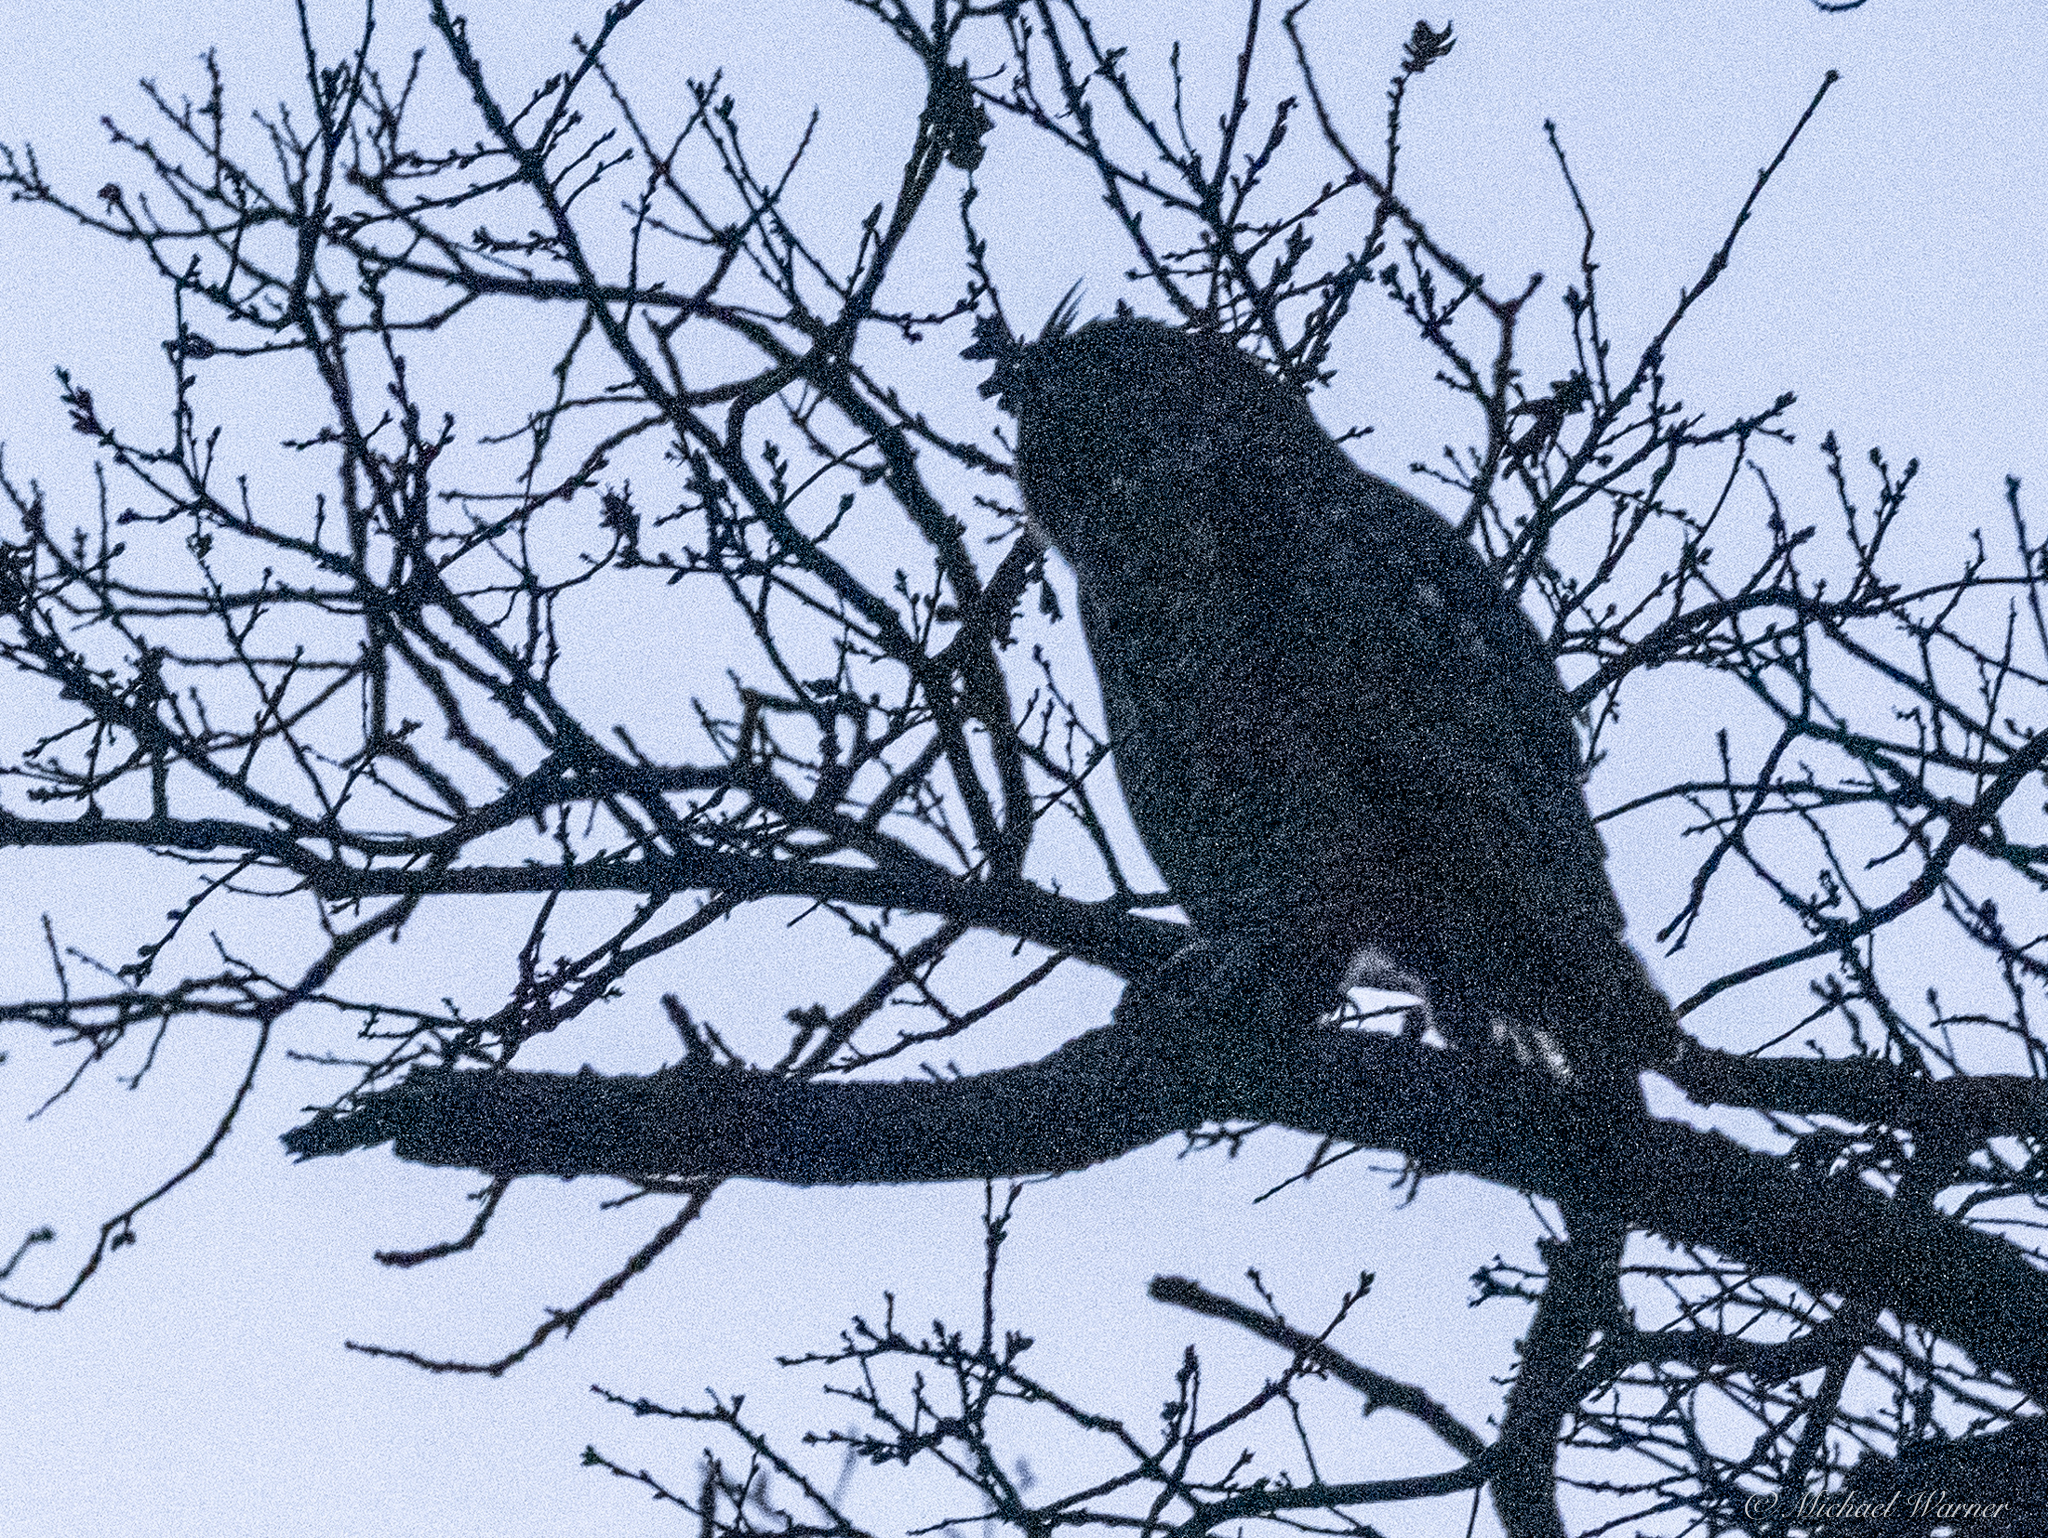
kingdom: Animalia
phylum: Chordata
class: Aves
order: Strigiformes
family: Strigidae
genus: Bubo
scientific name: Bubo virginianus
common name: Great horned owl
